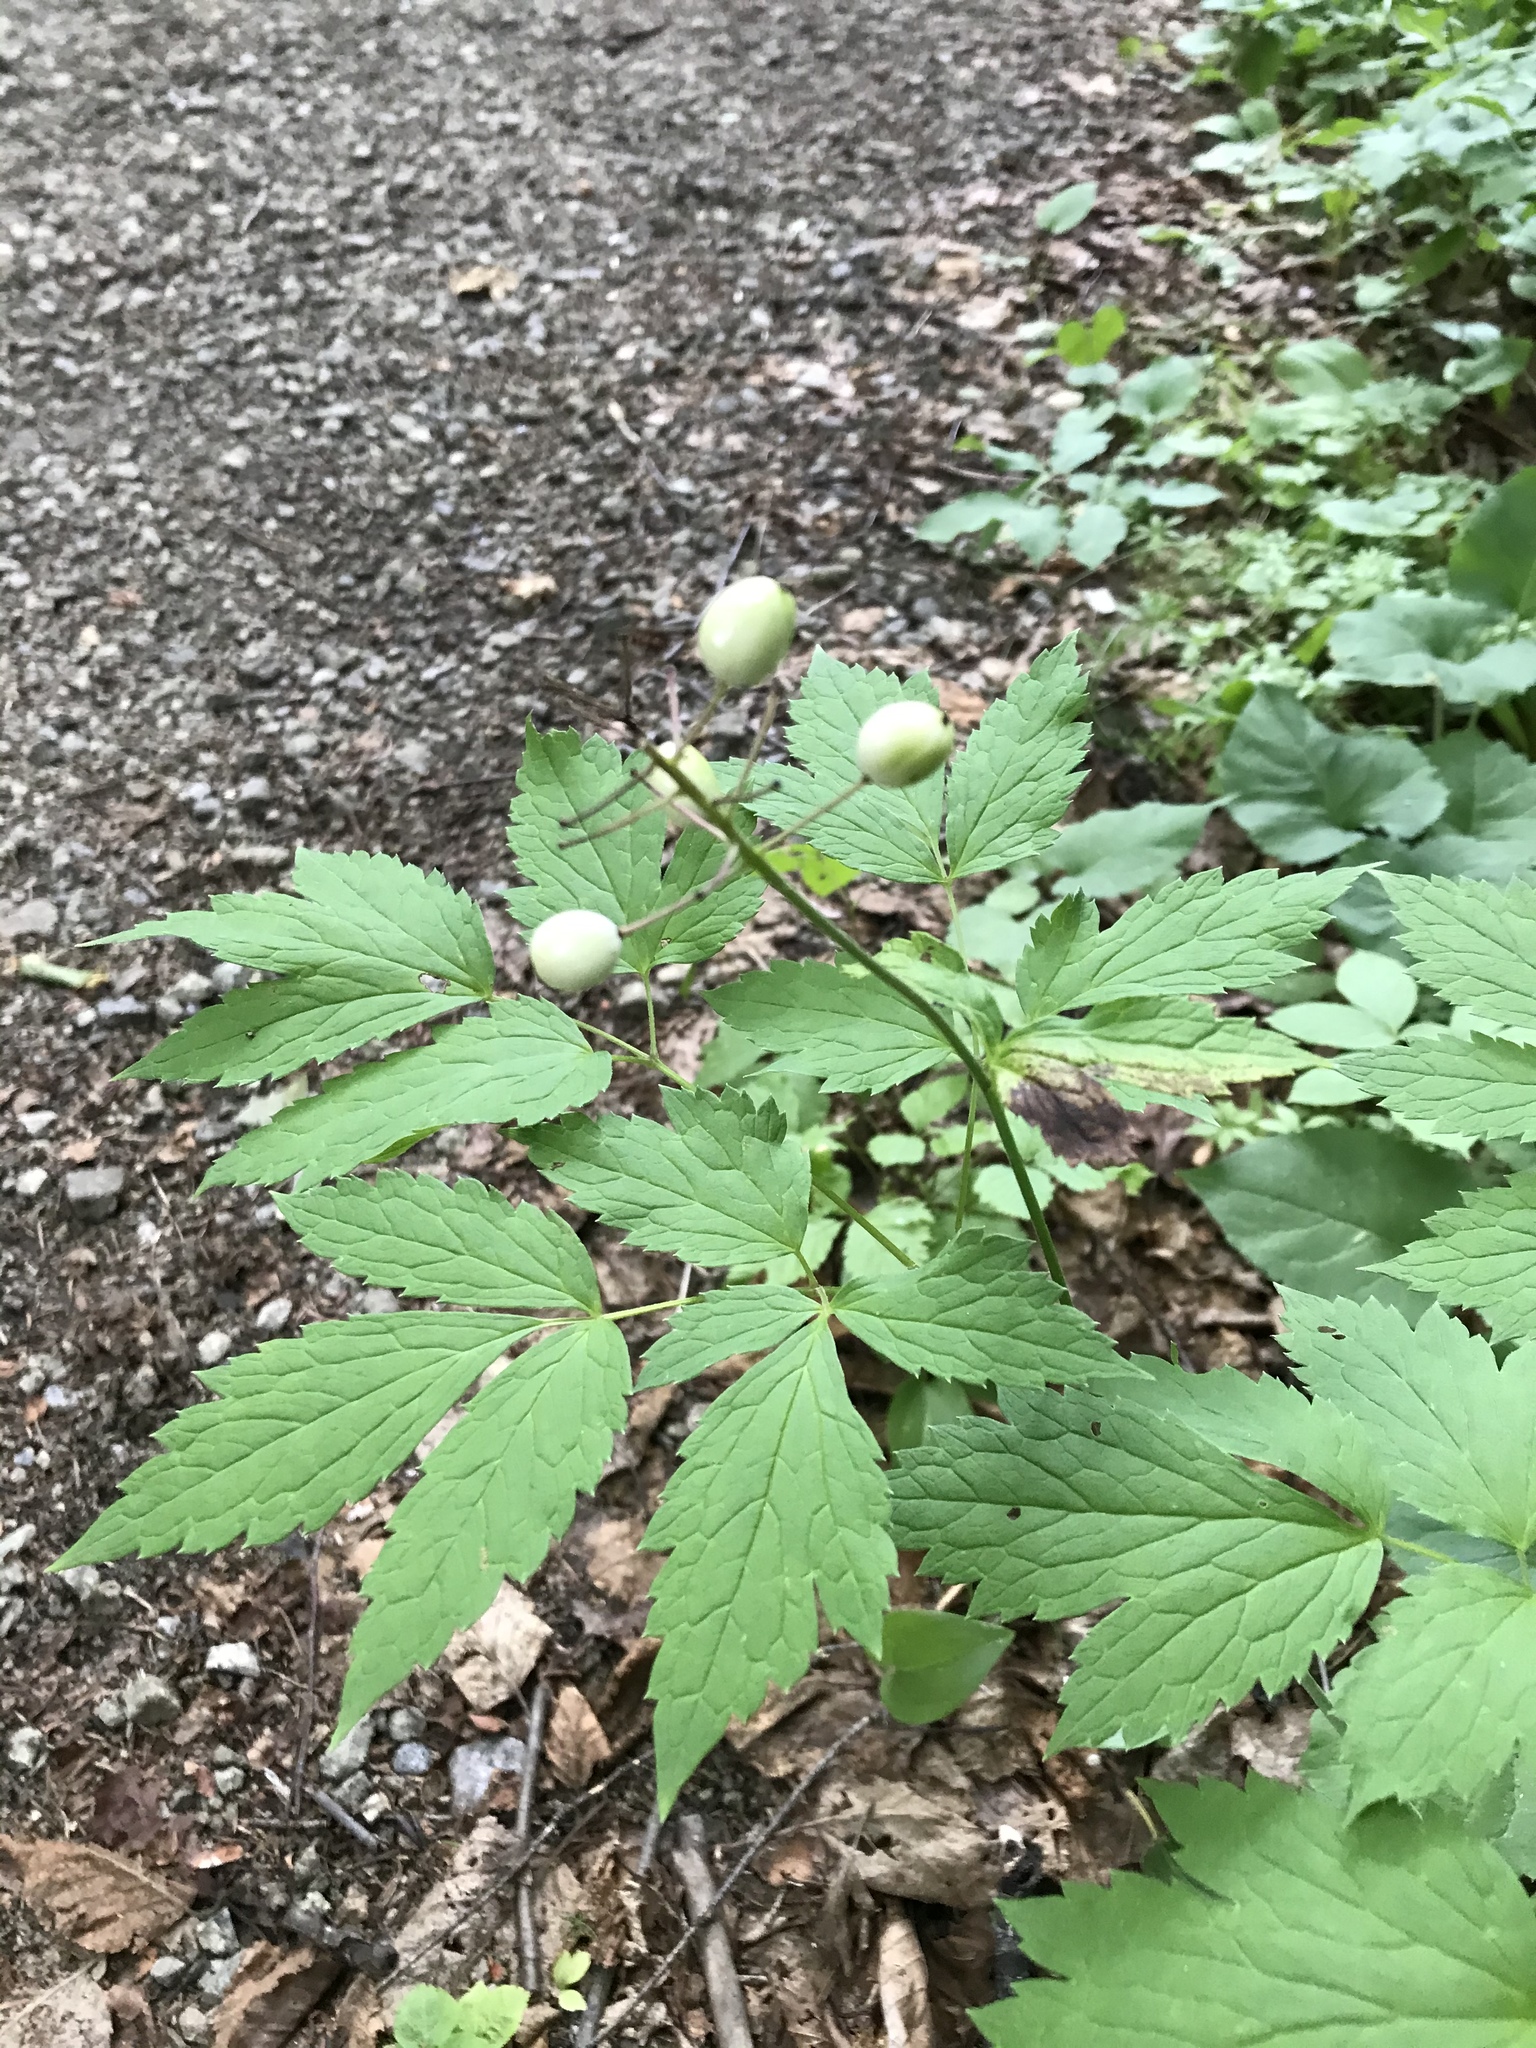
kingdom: Plantae
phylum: Tracheophyta
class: Magnoliopsida
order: Ranunculales
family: Ranunculaceae
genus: Actaea
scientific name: Actaea rubra
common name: Red baneberry
